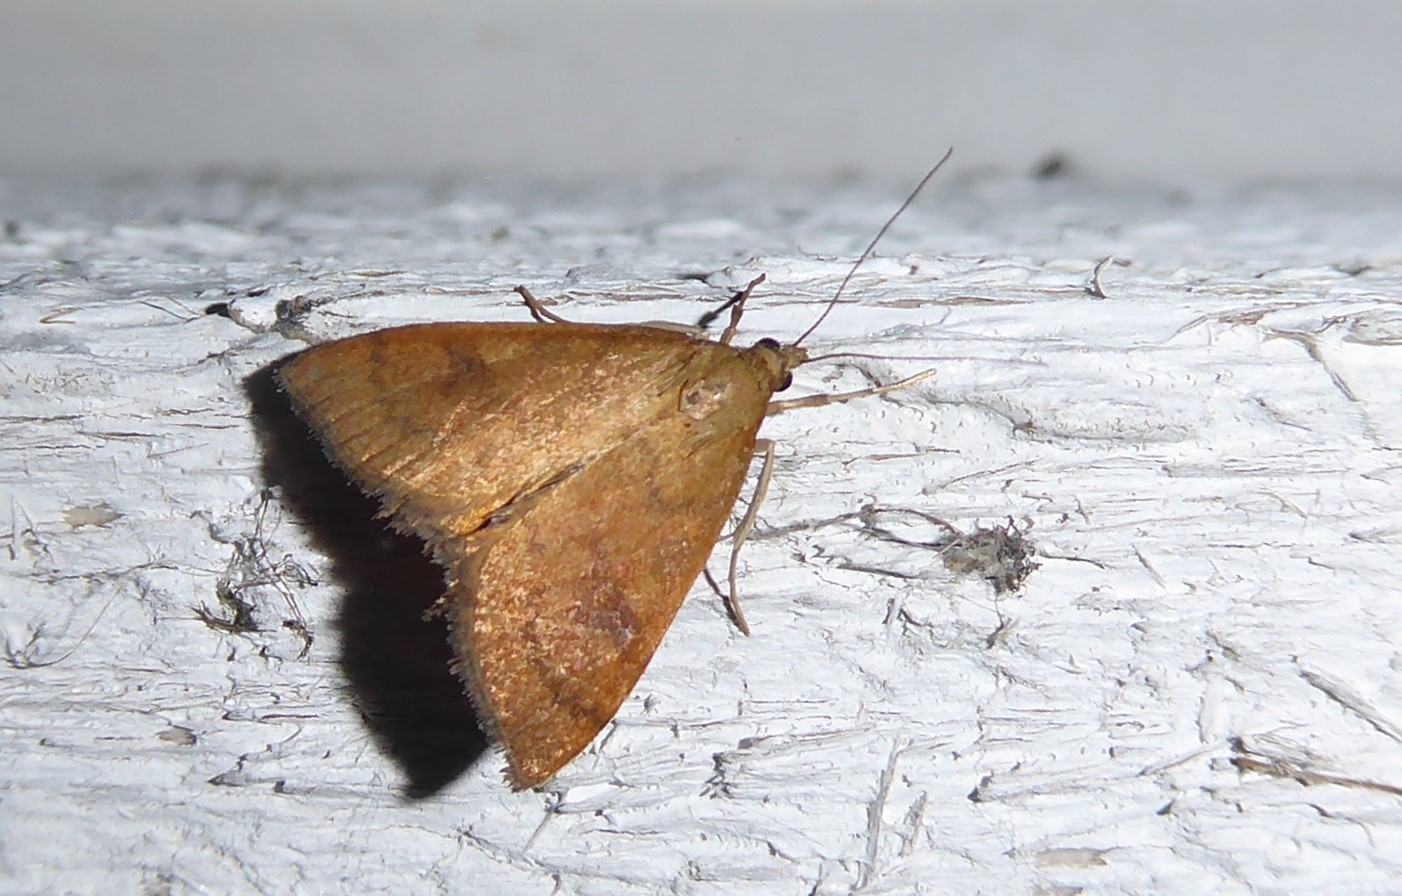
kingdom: Animalia
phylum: Arthropoda
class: Insecta
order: Lepidoptera
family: Crambidae
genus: Udea
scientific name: Udea Mnesictena flavidalis
